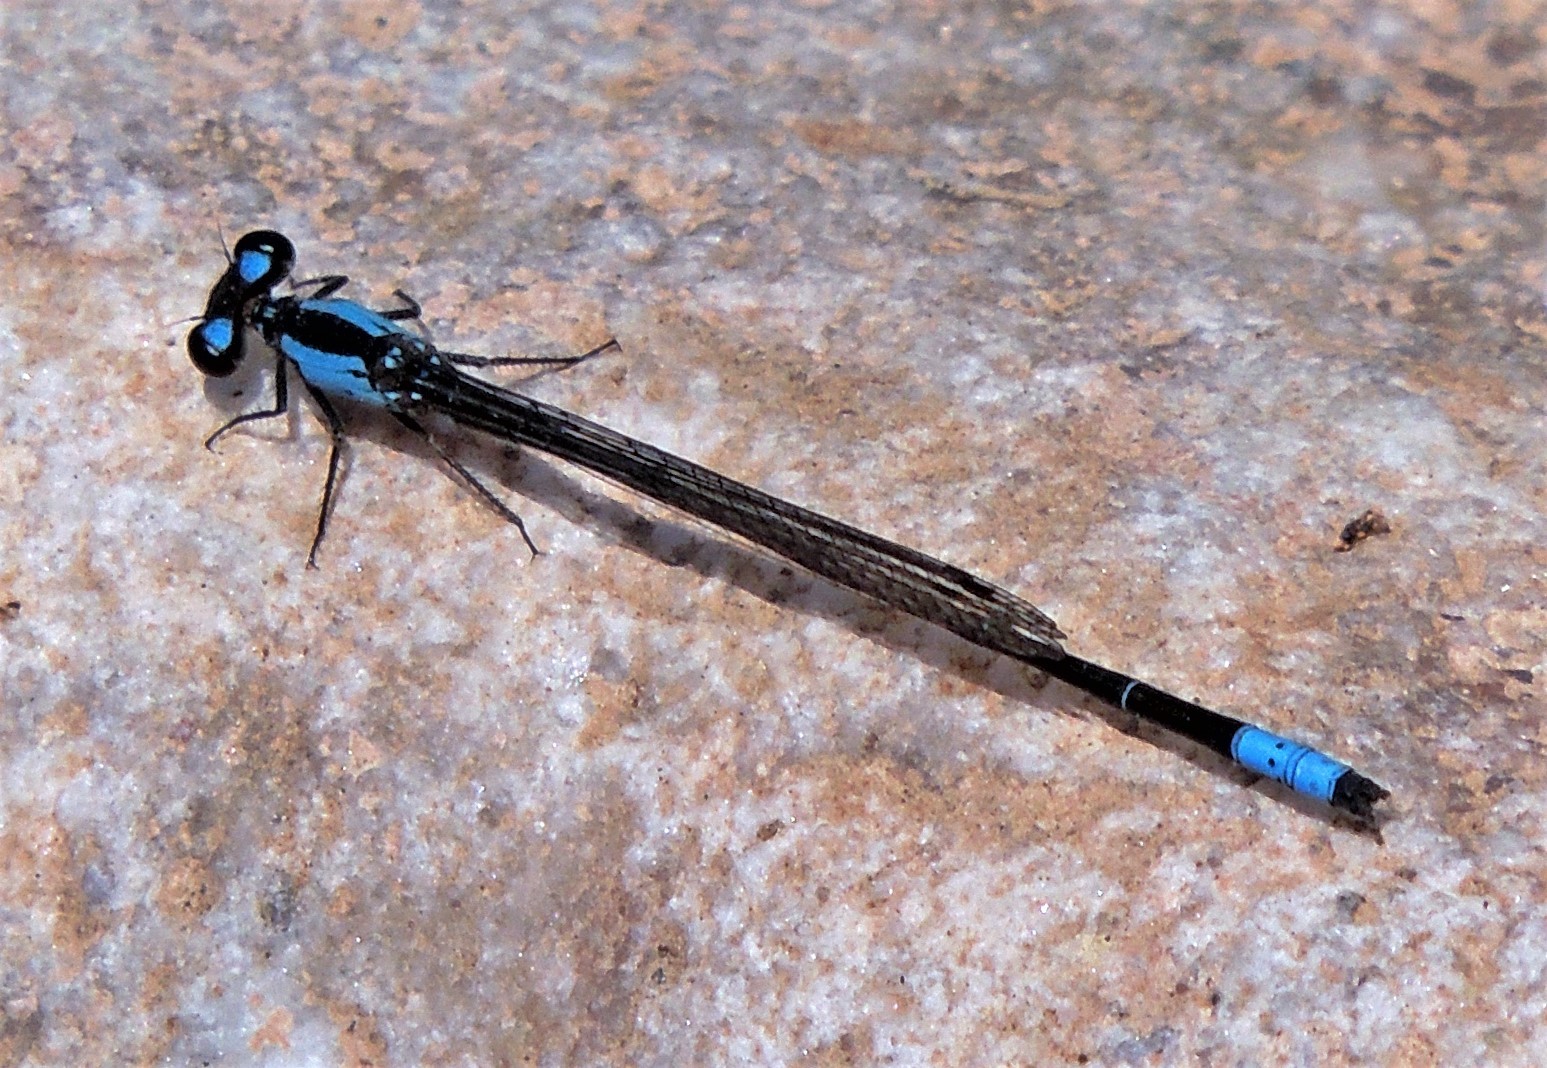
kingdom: Animalia
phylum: Arthropoda
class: Insecta
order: Odonata
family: Coenagrionidae
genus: Oxyagrion
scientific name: Oxyagrion ablutum
